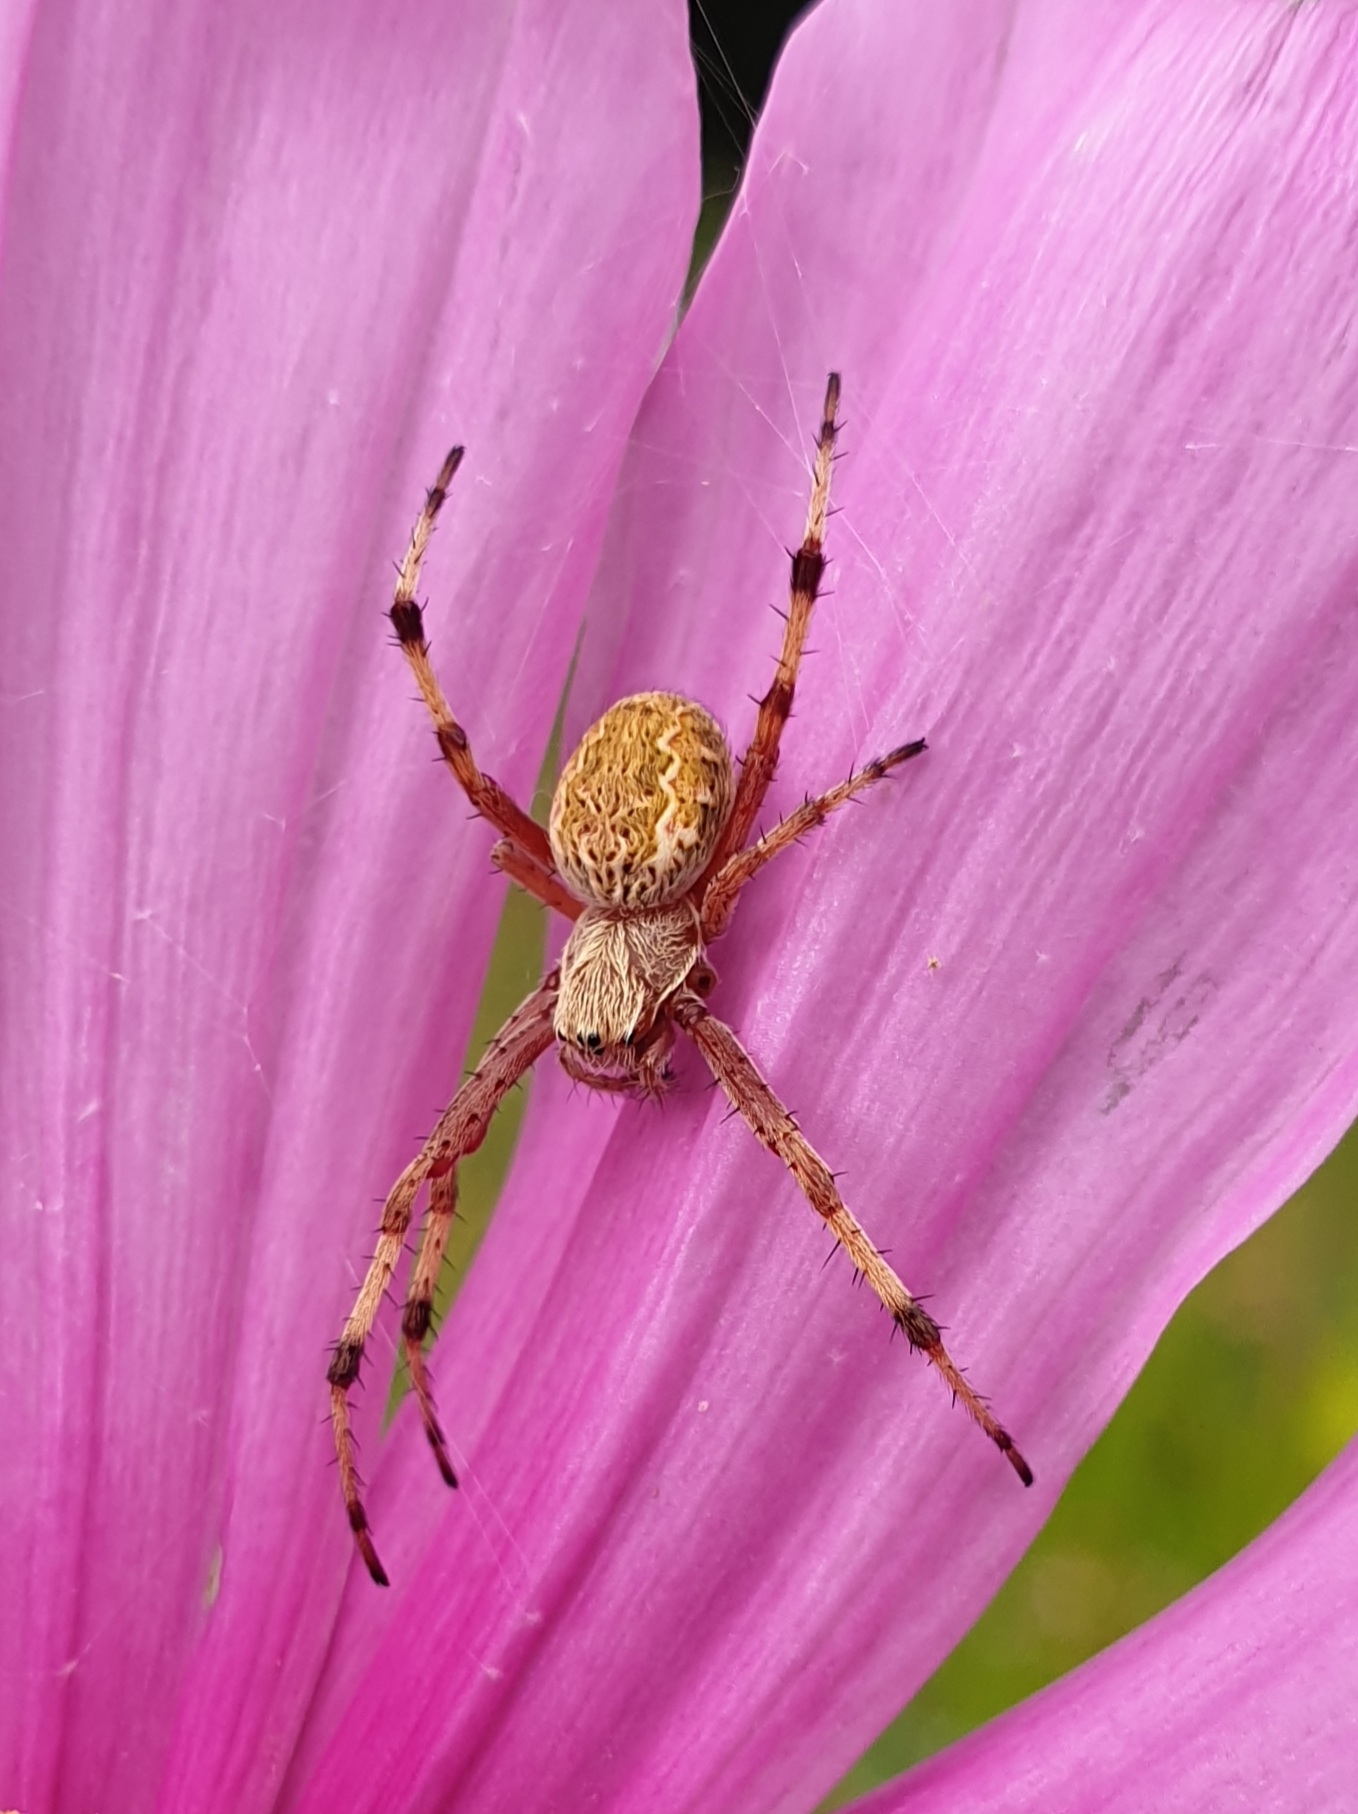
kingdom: Animalia
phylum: Arthropoda
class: Arachnida
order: Araneae
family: Araneidae
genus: Salsa
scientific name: Salsa fuliginata
